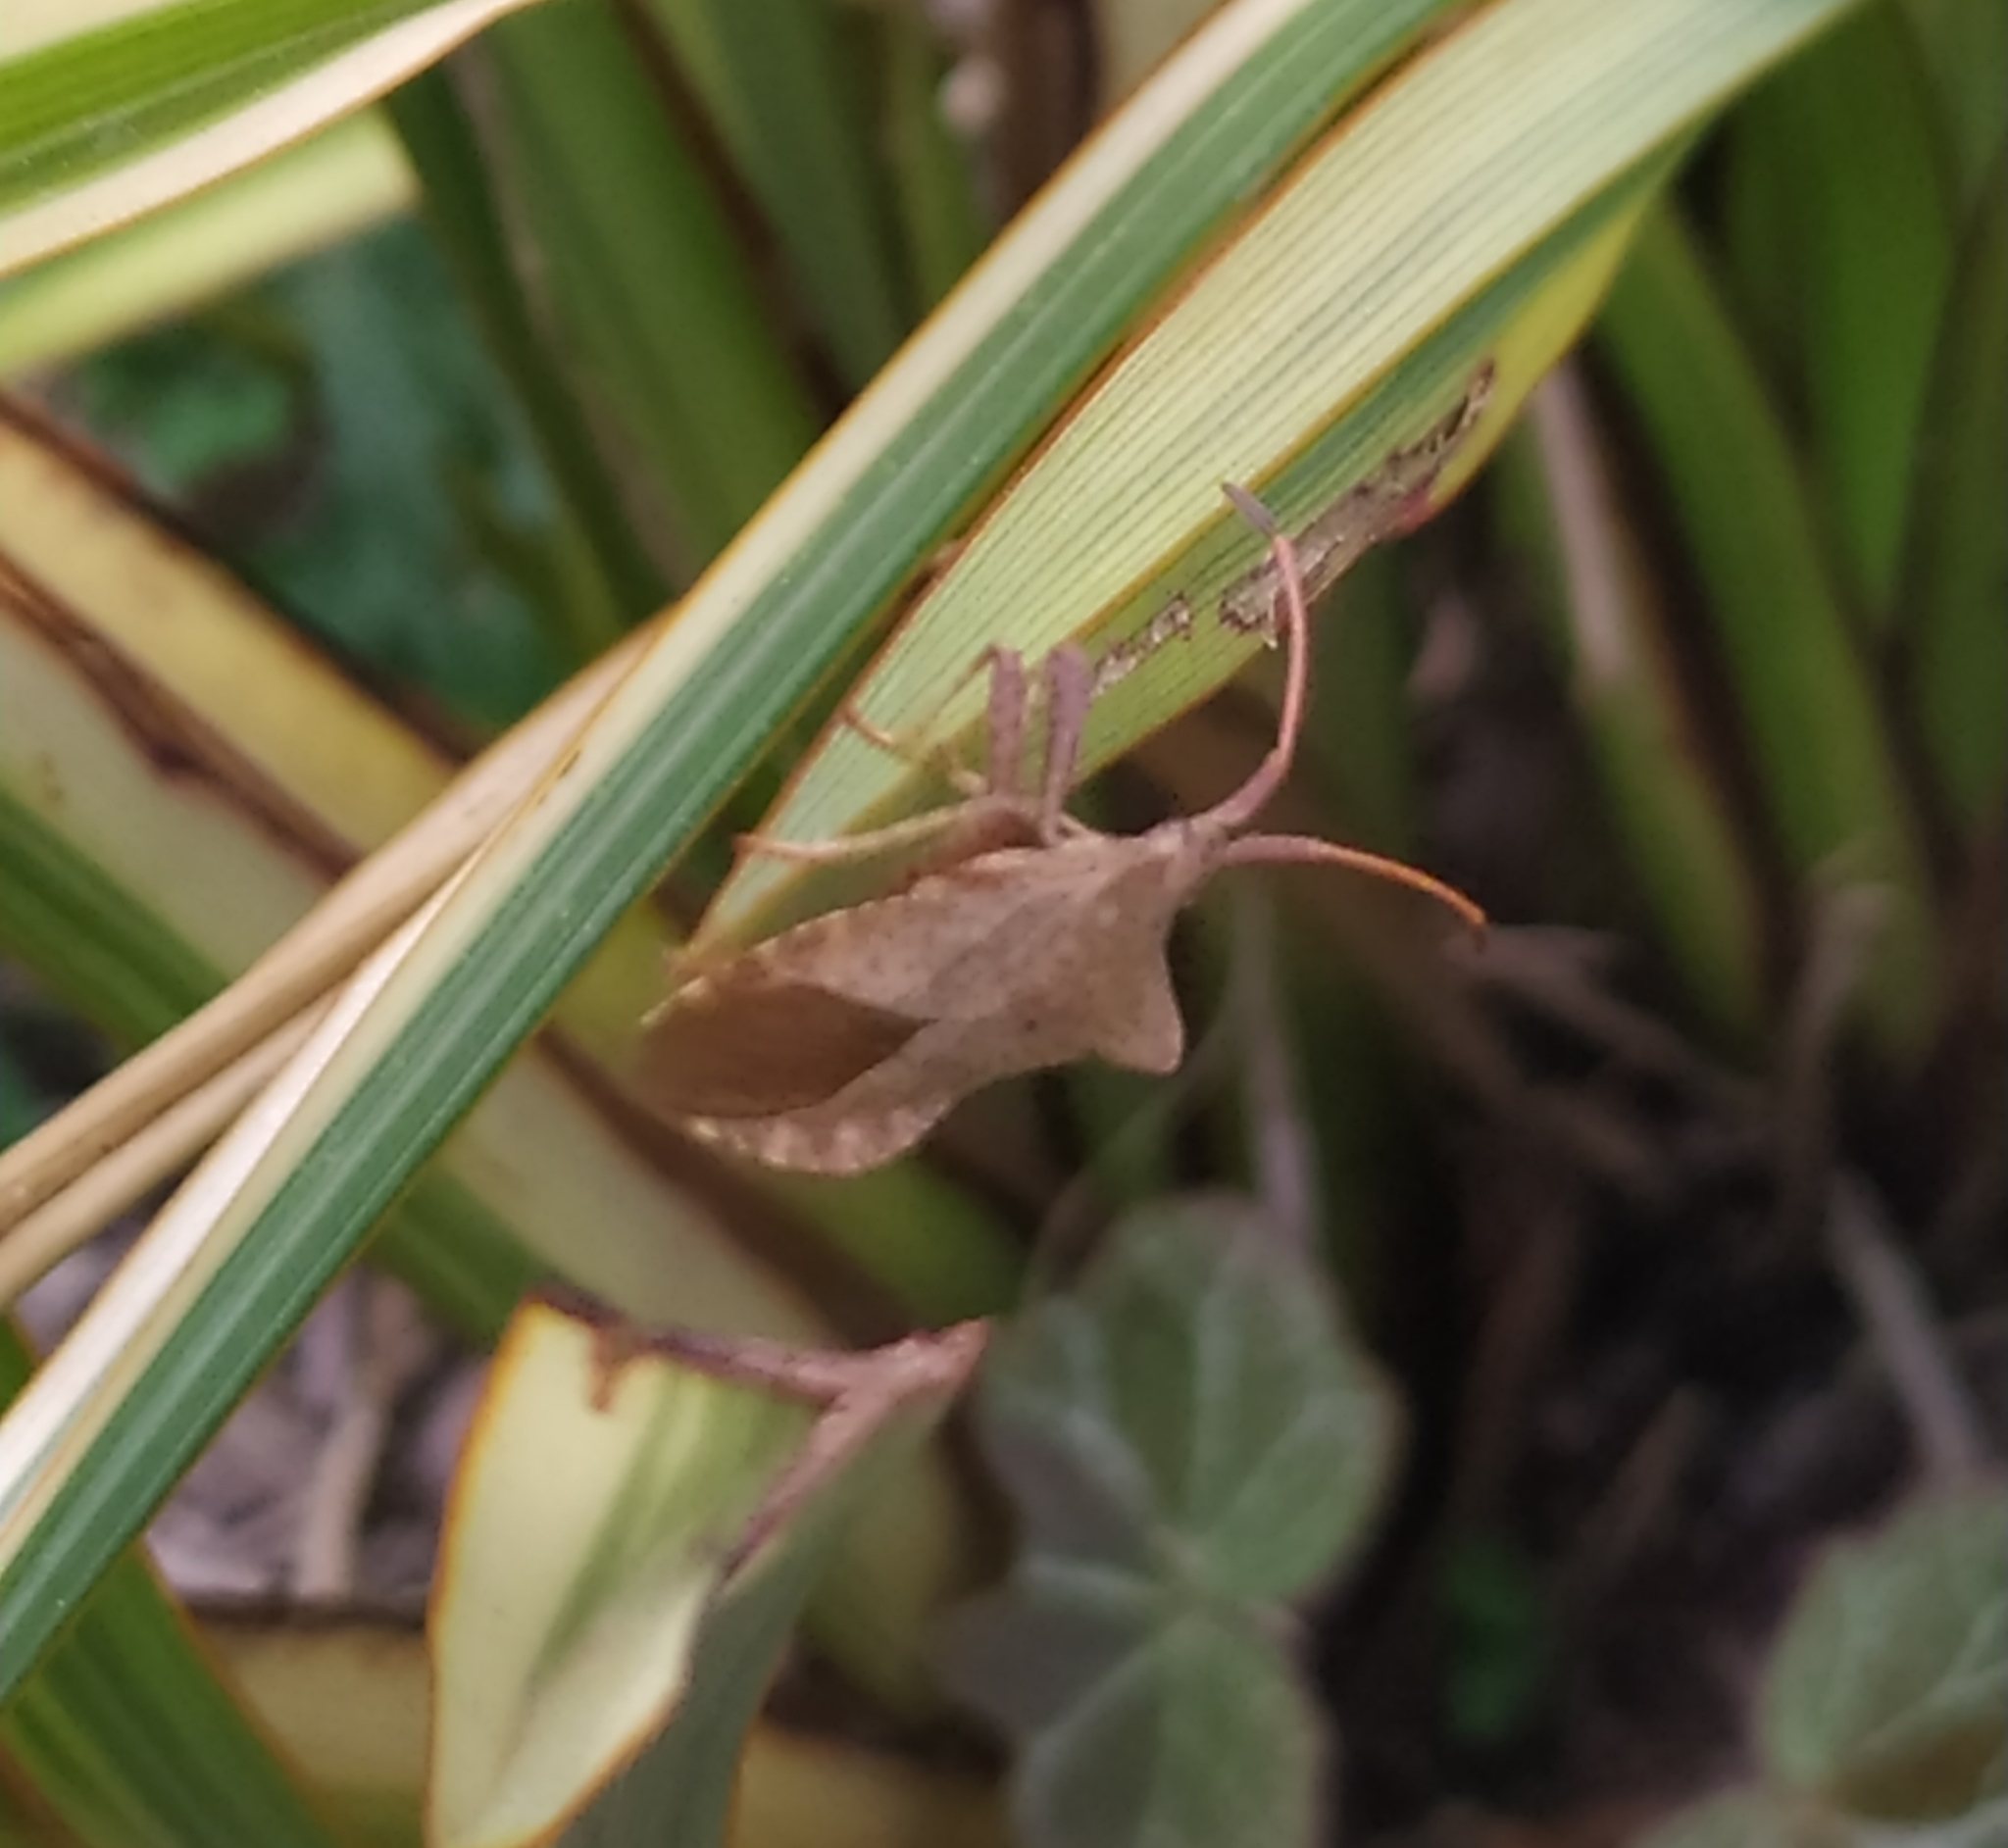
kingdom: Animalia
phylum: Arthropoda
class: Insecta
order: Hemiptera
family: Coreidae
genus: Coreus
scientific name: Coreus marginatus
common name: Dock bug
